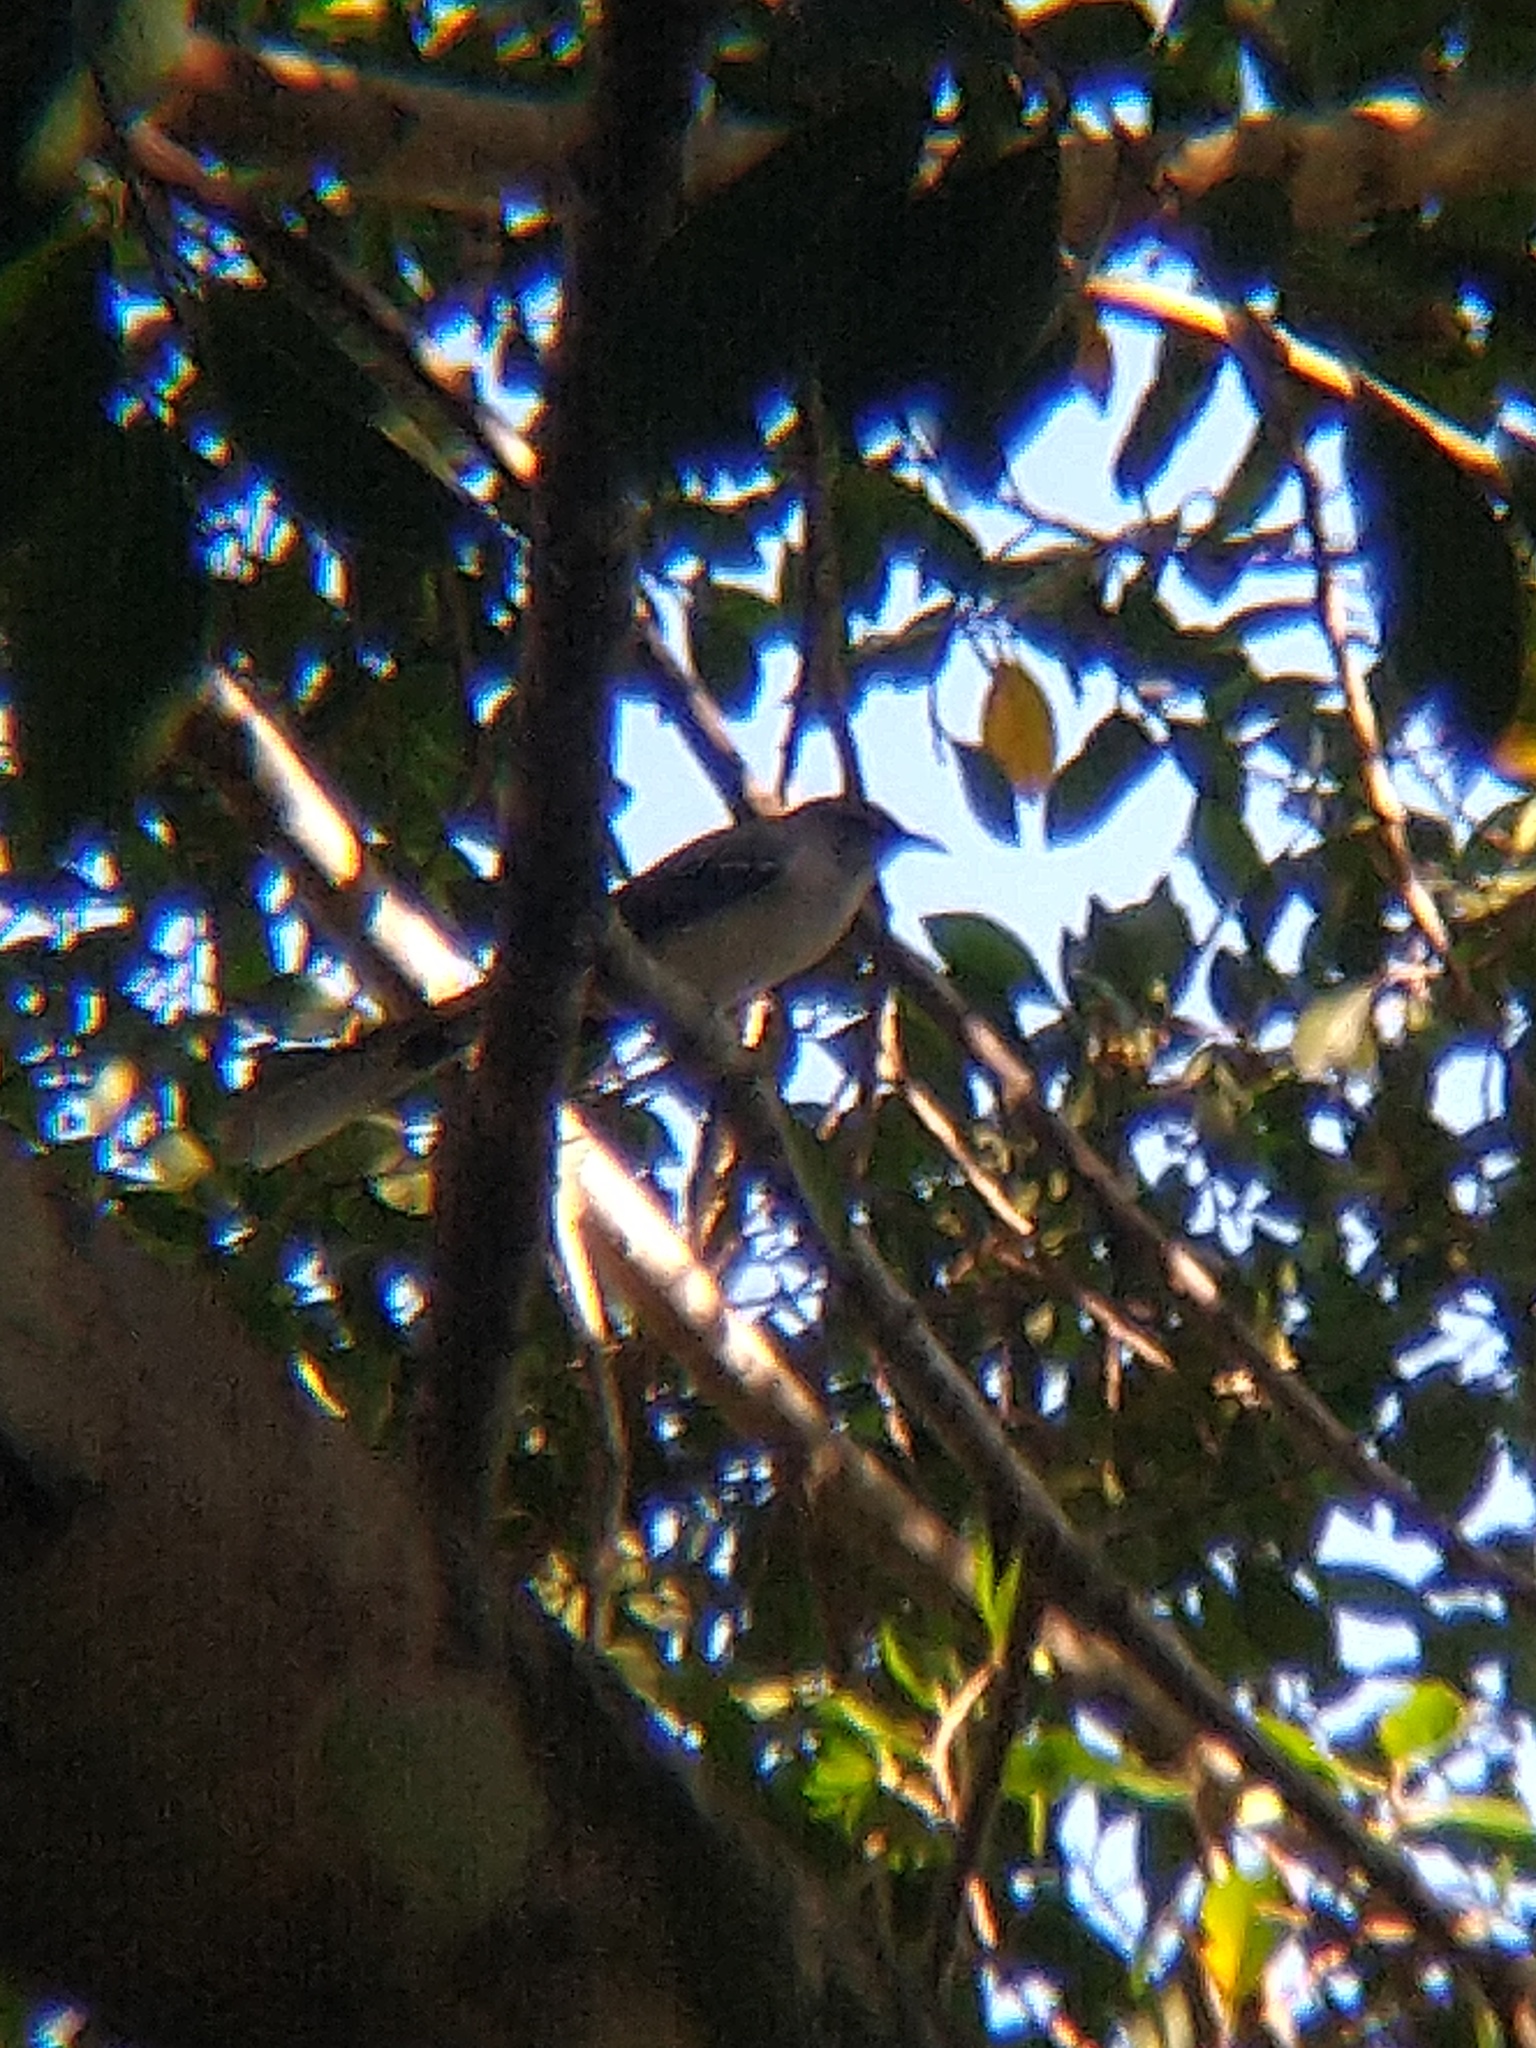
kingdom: Animalia
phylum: Chordata
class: Aves
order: Passeriformes
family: Mimidae
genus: Mimus
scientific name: Mimus gilvus
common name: Tropical mockingbird
